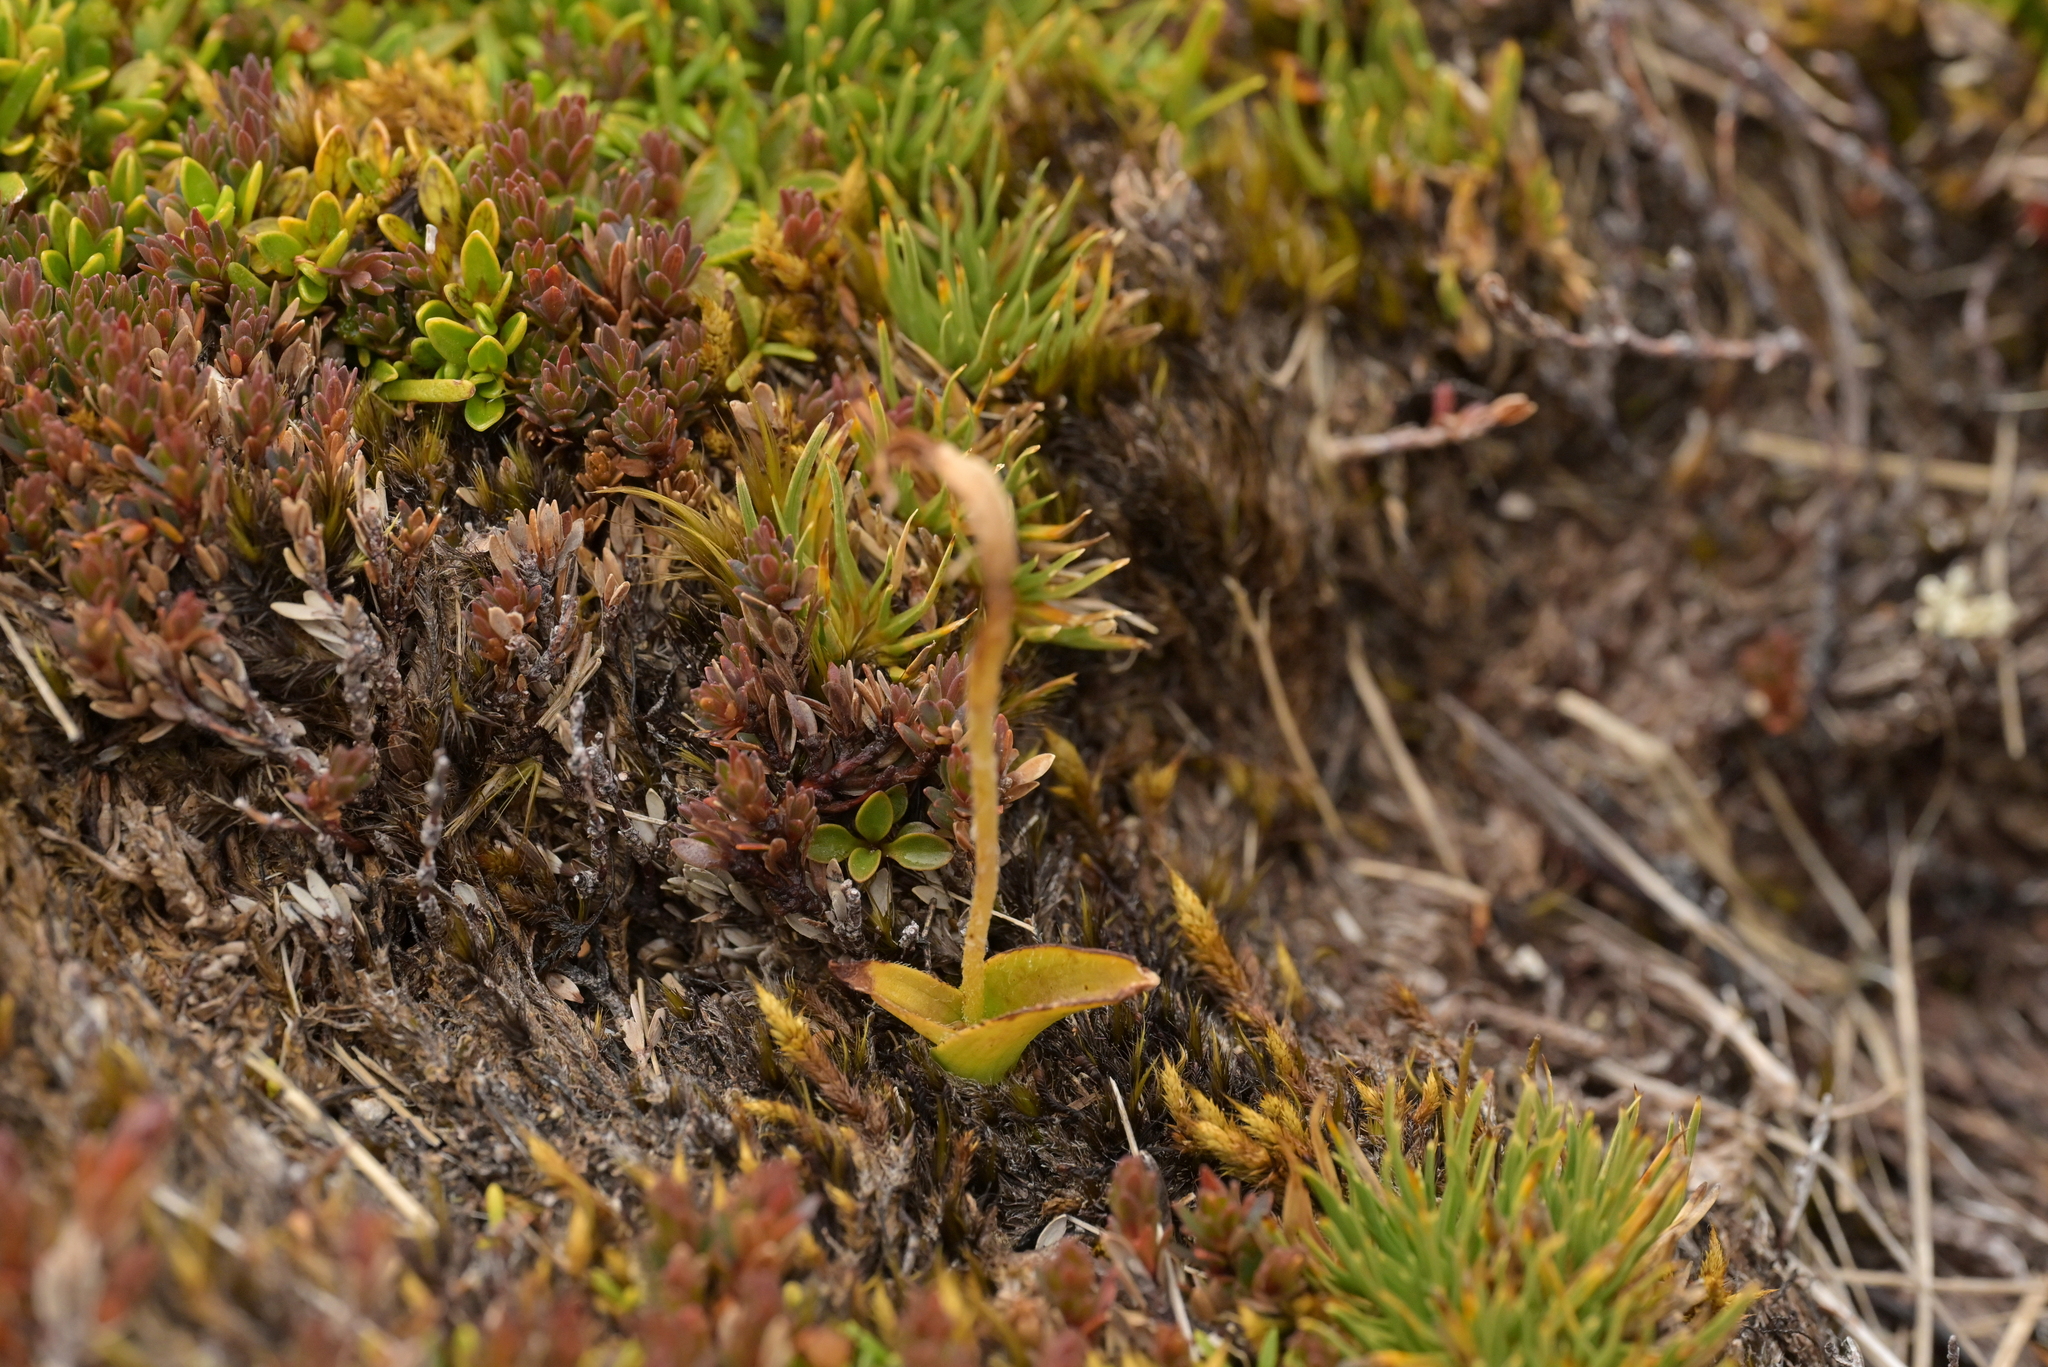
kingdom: Plantae
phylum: Tracheophyta
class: Liliopsida
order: Asparagales
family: Orchidaceae
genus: Aporostylis
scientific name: Aporostylis bifolia
